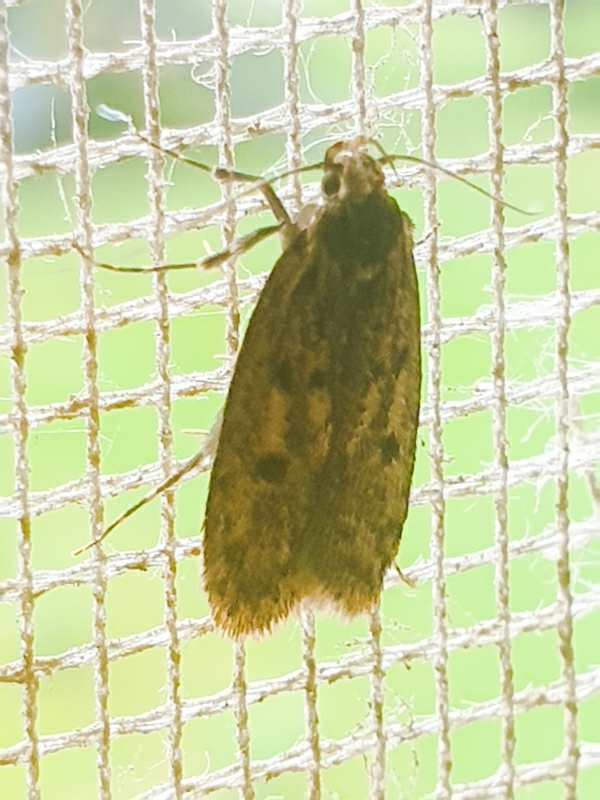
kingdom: Animalia
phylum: Arthropoda
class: Insecta
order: Lepidoptera
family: Oecophoridae
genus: Hofmannophila
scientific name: Hofmannophila pseudospretella
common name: Brown house moth
